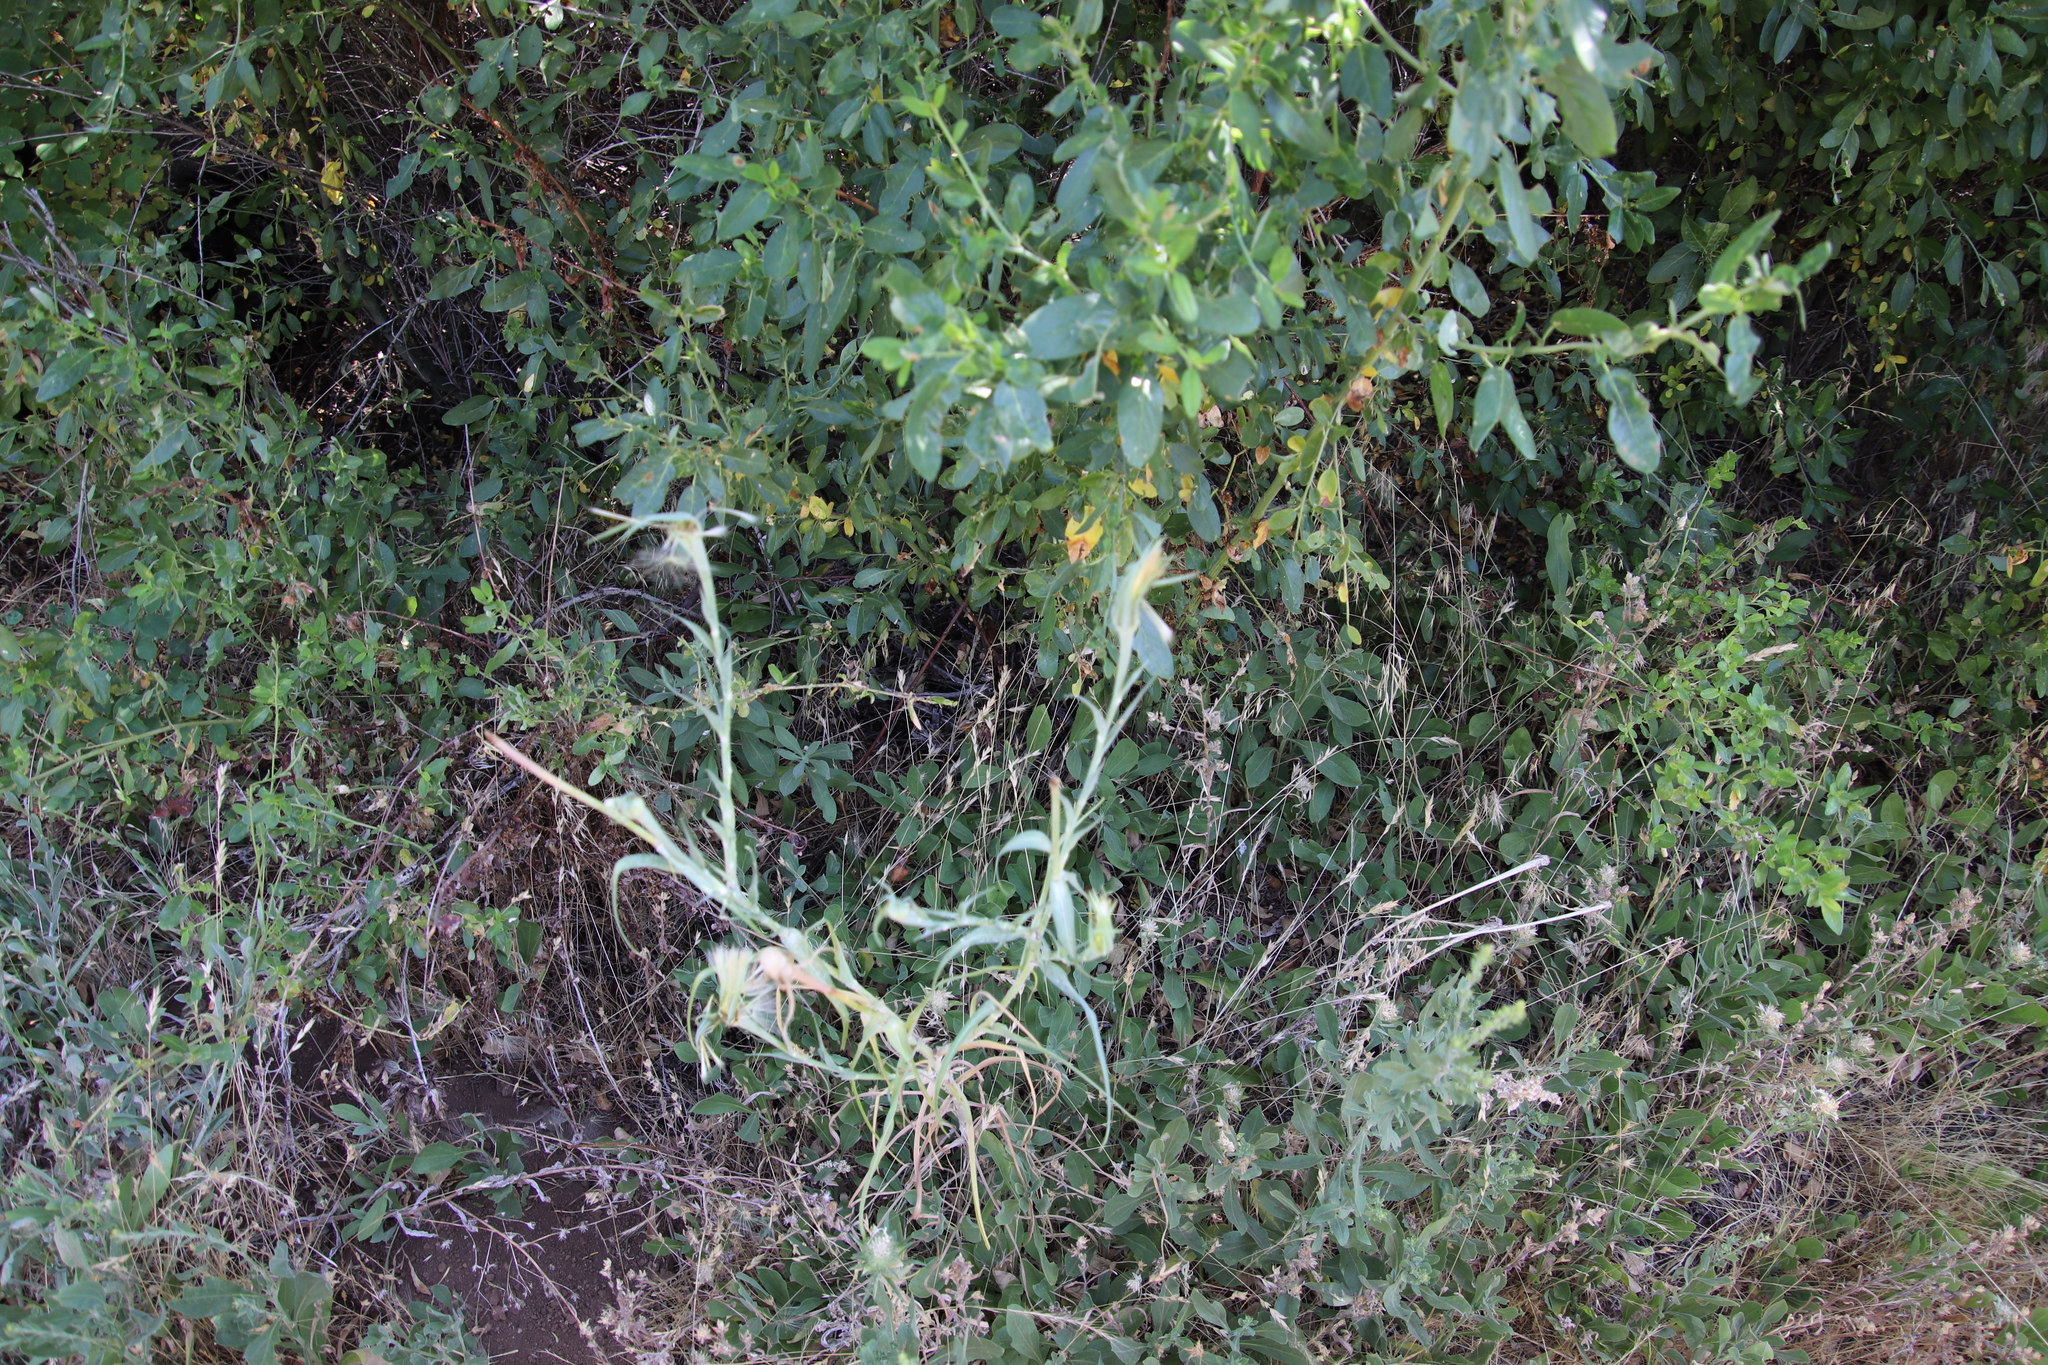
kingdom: Plantae
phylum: Tracheophyta
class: Magnoliopsida
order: Asterales
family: Asteraceae
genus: Tragopogon
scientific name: Tragopogon dubius
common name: Yellow salsify
